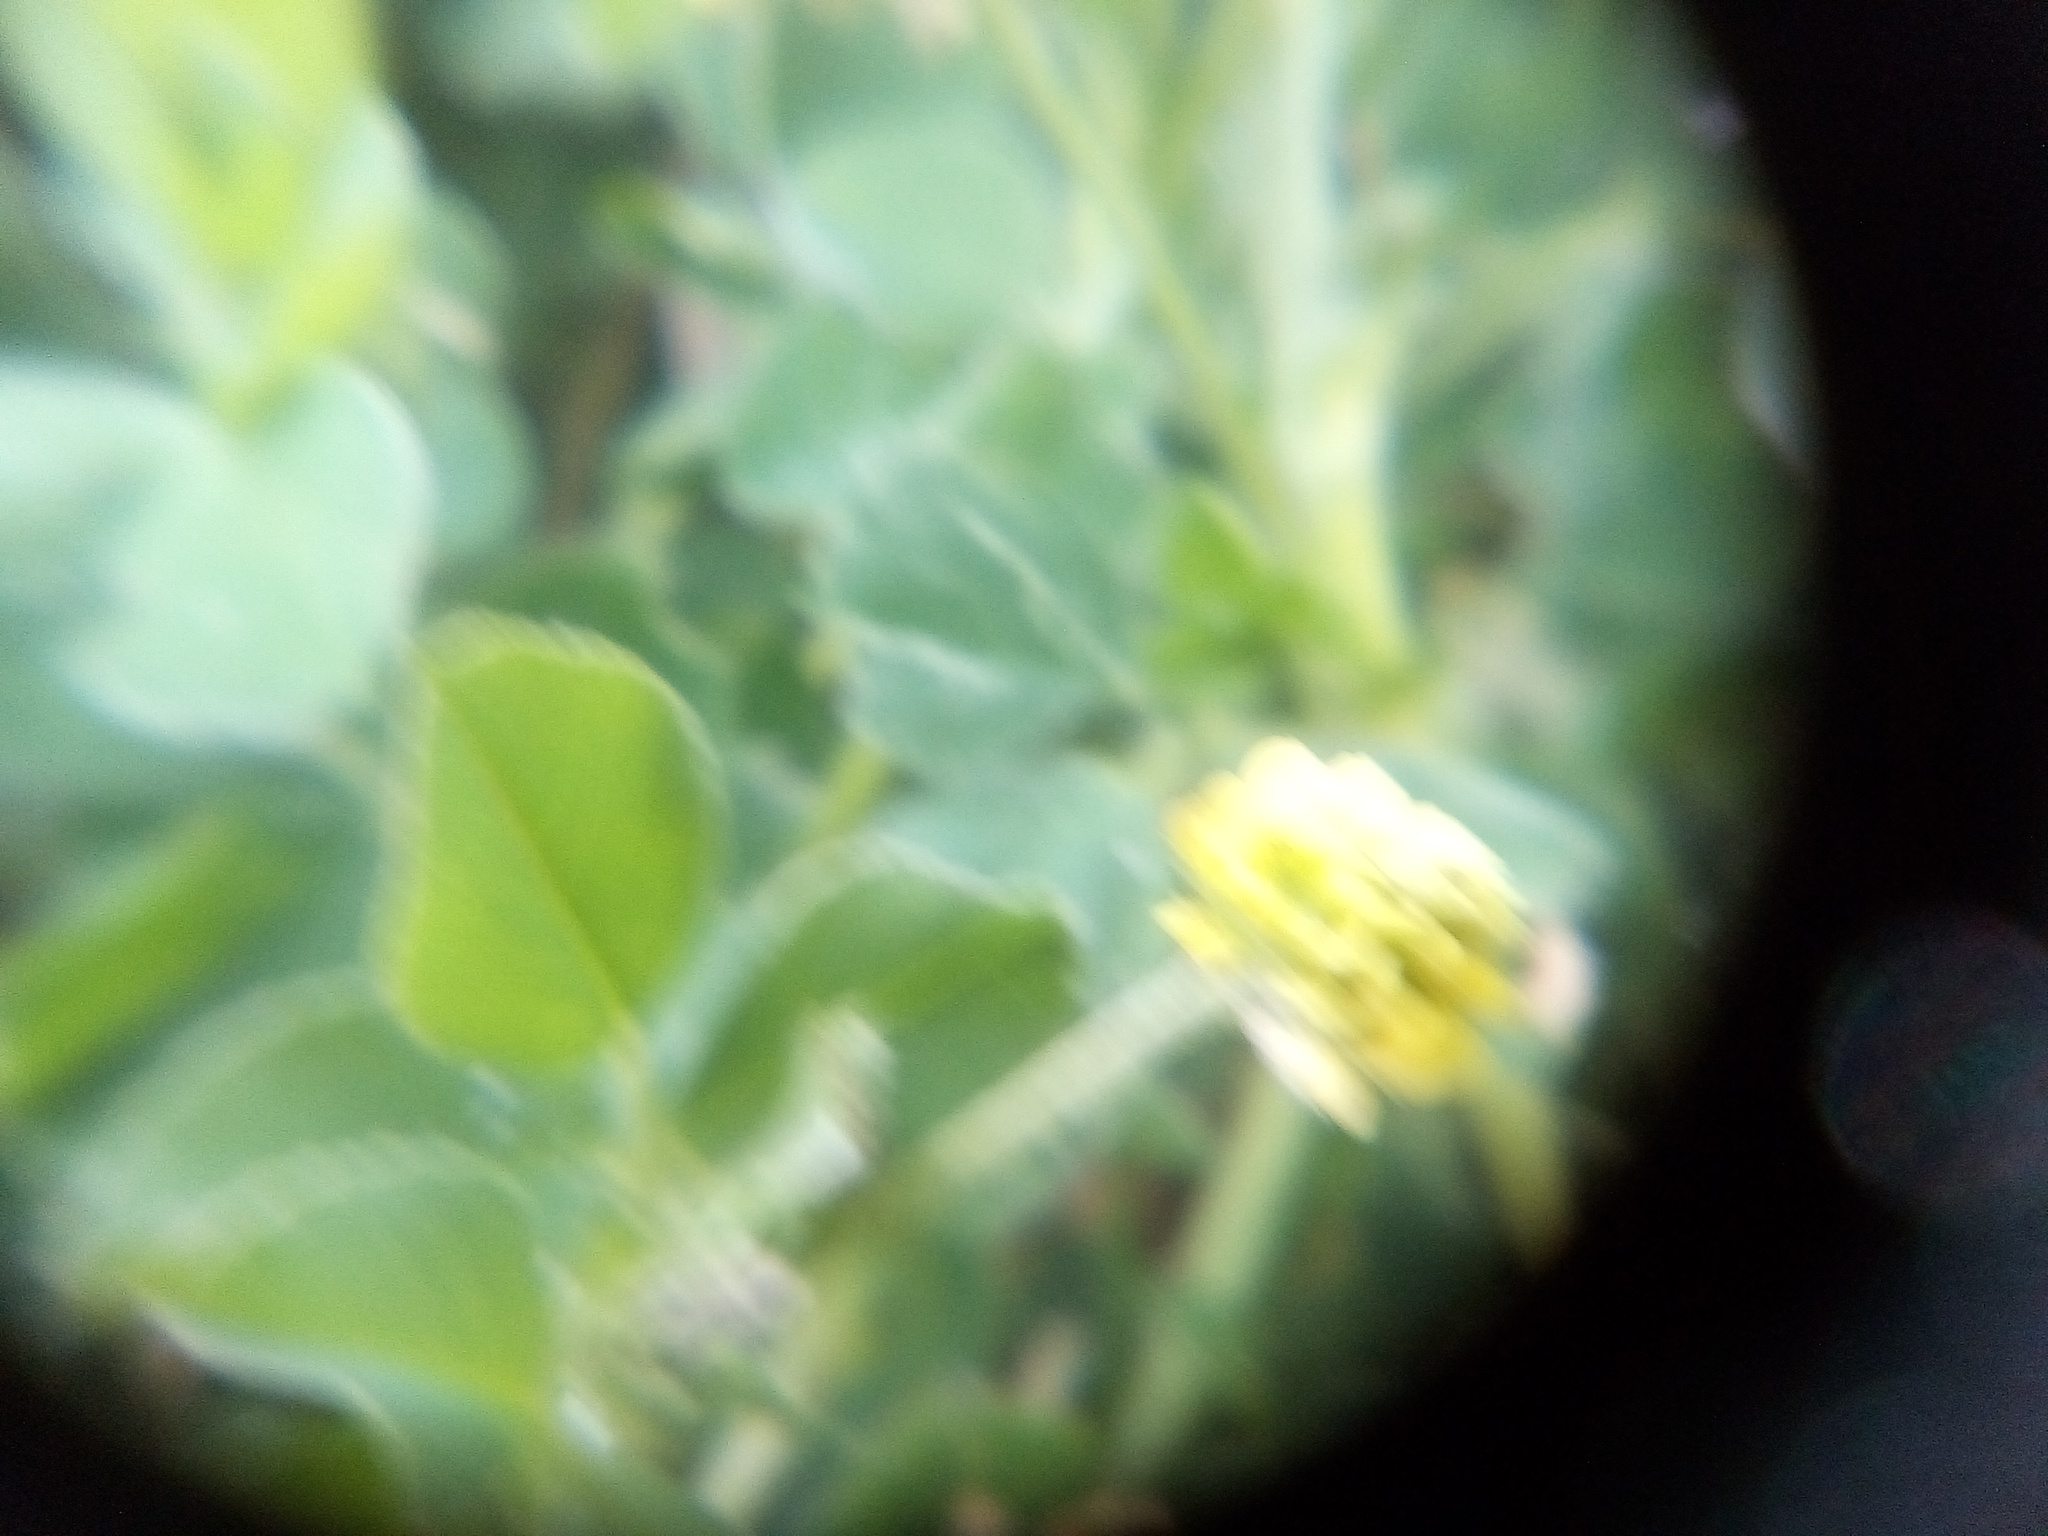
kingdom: Plantae
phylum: Tracheophyta
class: Magnoliopsida
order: Fabales
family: Fabaceae
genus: Medicago
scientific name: Medicago lupulina
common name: Black medick
